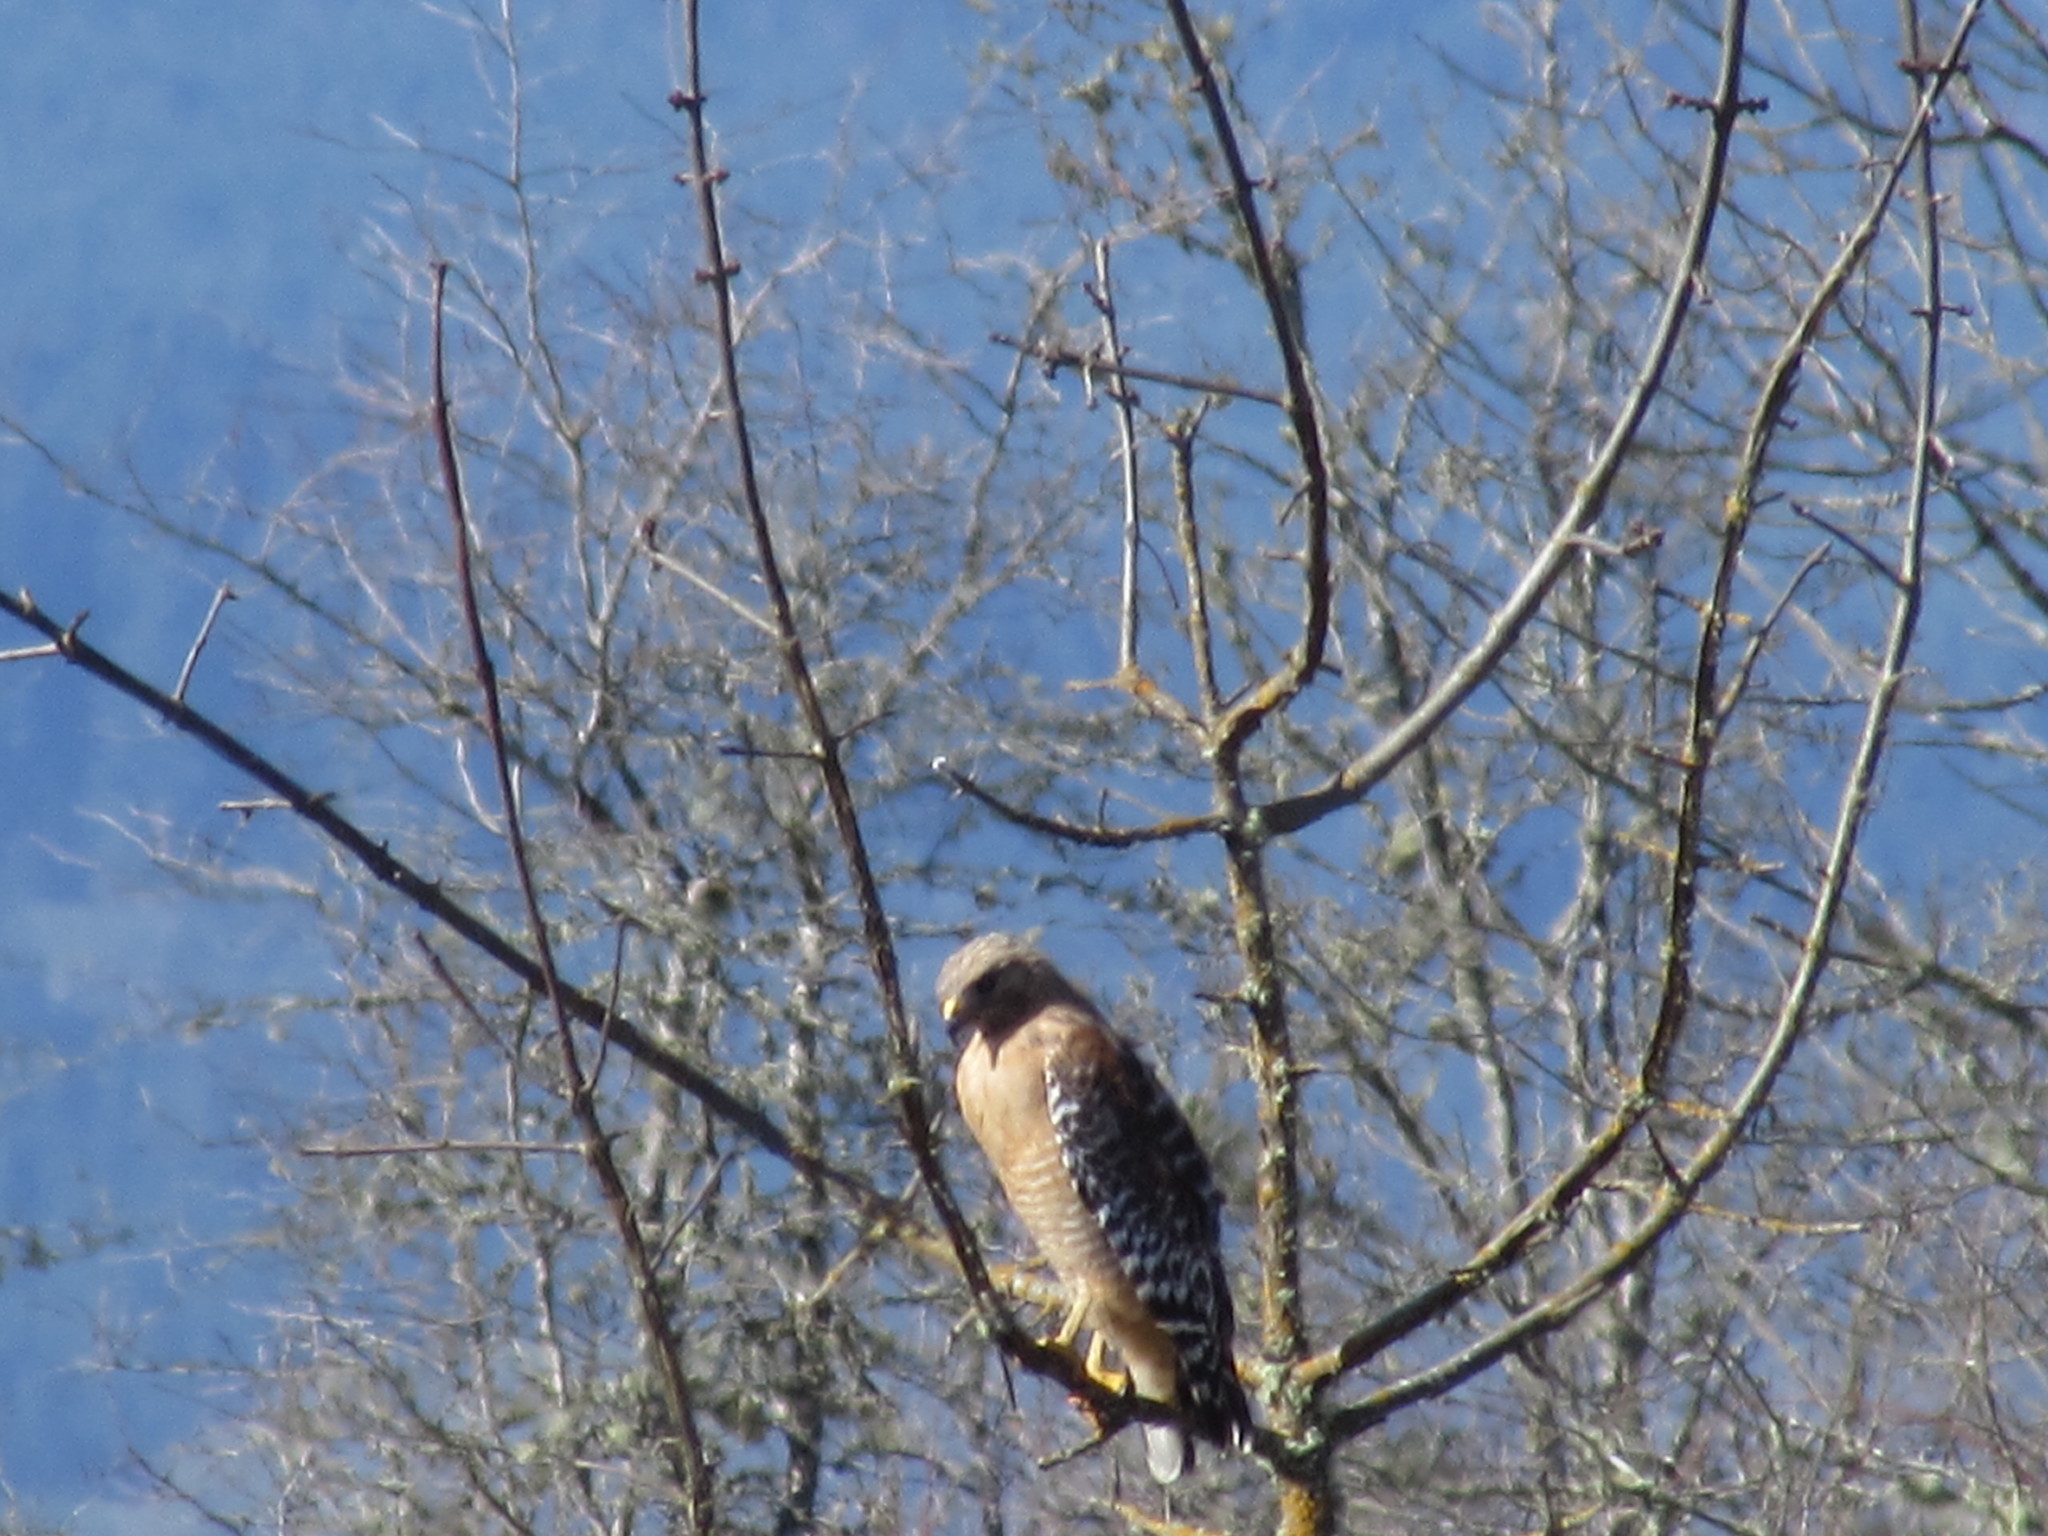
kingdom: Animalia
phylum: Chordata
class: Aves
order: Accipitriformes
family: Accipitridae
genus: Buteo
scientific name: Buteo lineatus
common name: Red-shouldered hawk
